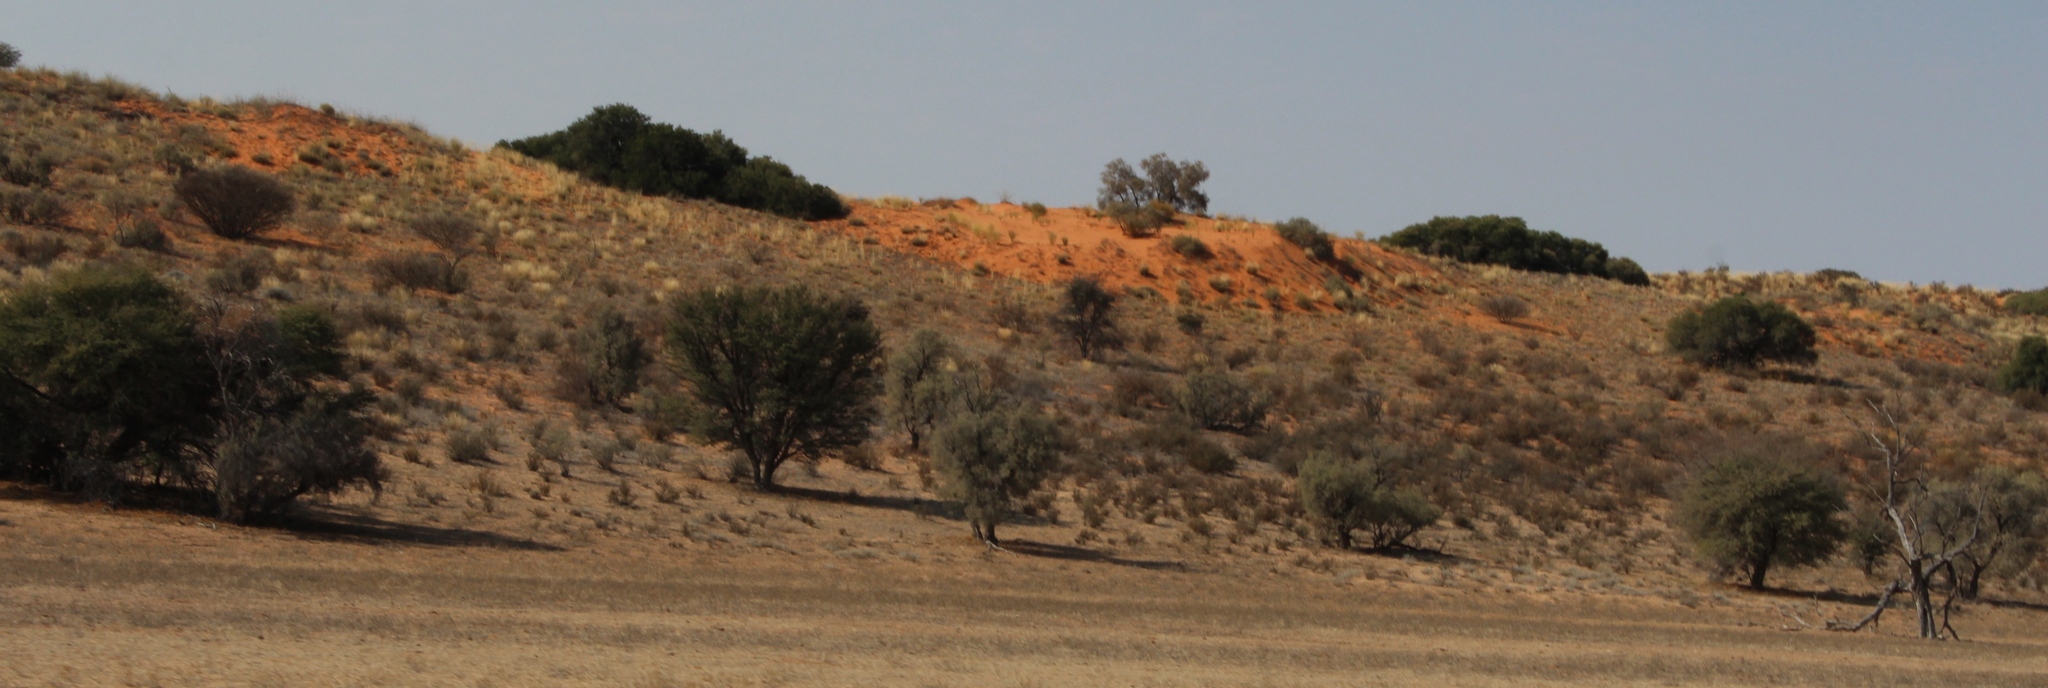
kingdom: Plantae
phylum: Tracheophyta
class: Magnoliopsida
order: Brassicales
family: Capparaceae
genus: Boscia
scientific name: Boscia albitrunca
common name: Caper bush
